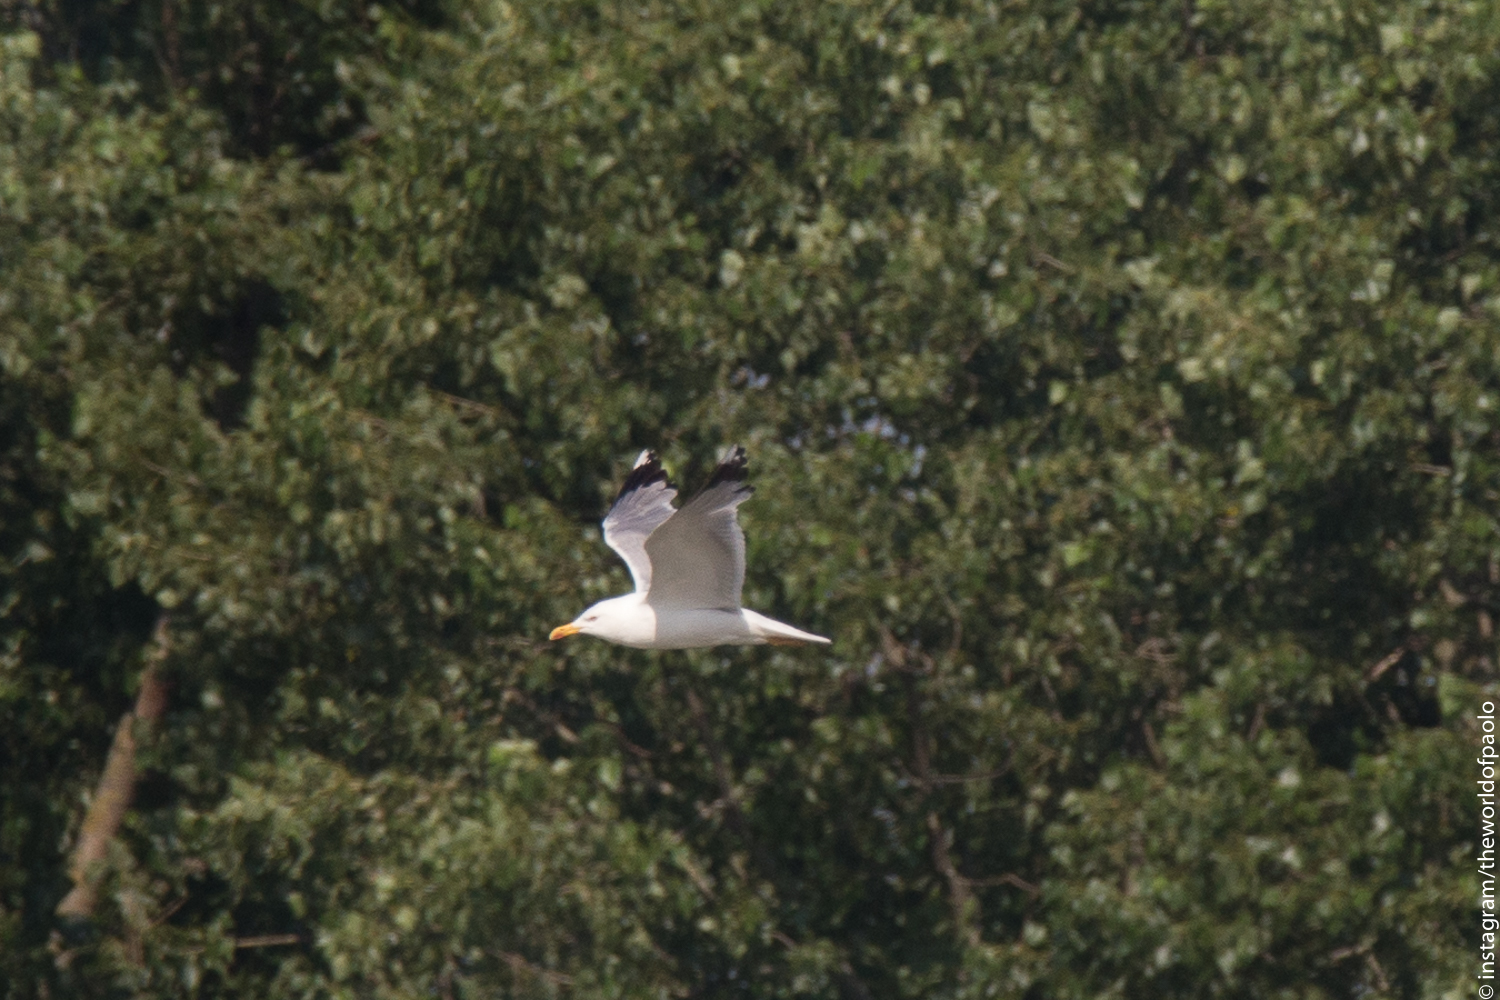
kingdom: Animalia
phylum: Chordata
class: Aves
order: Charadriiformes
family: Laridae
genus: Larus
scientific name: Larus michahellis
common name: Yellow-legged gull
